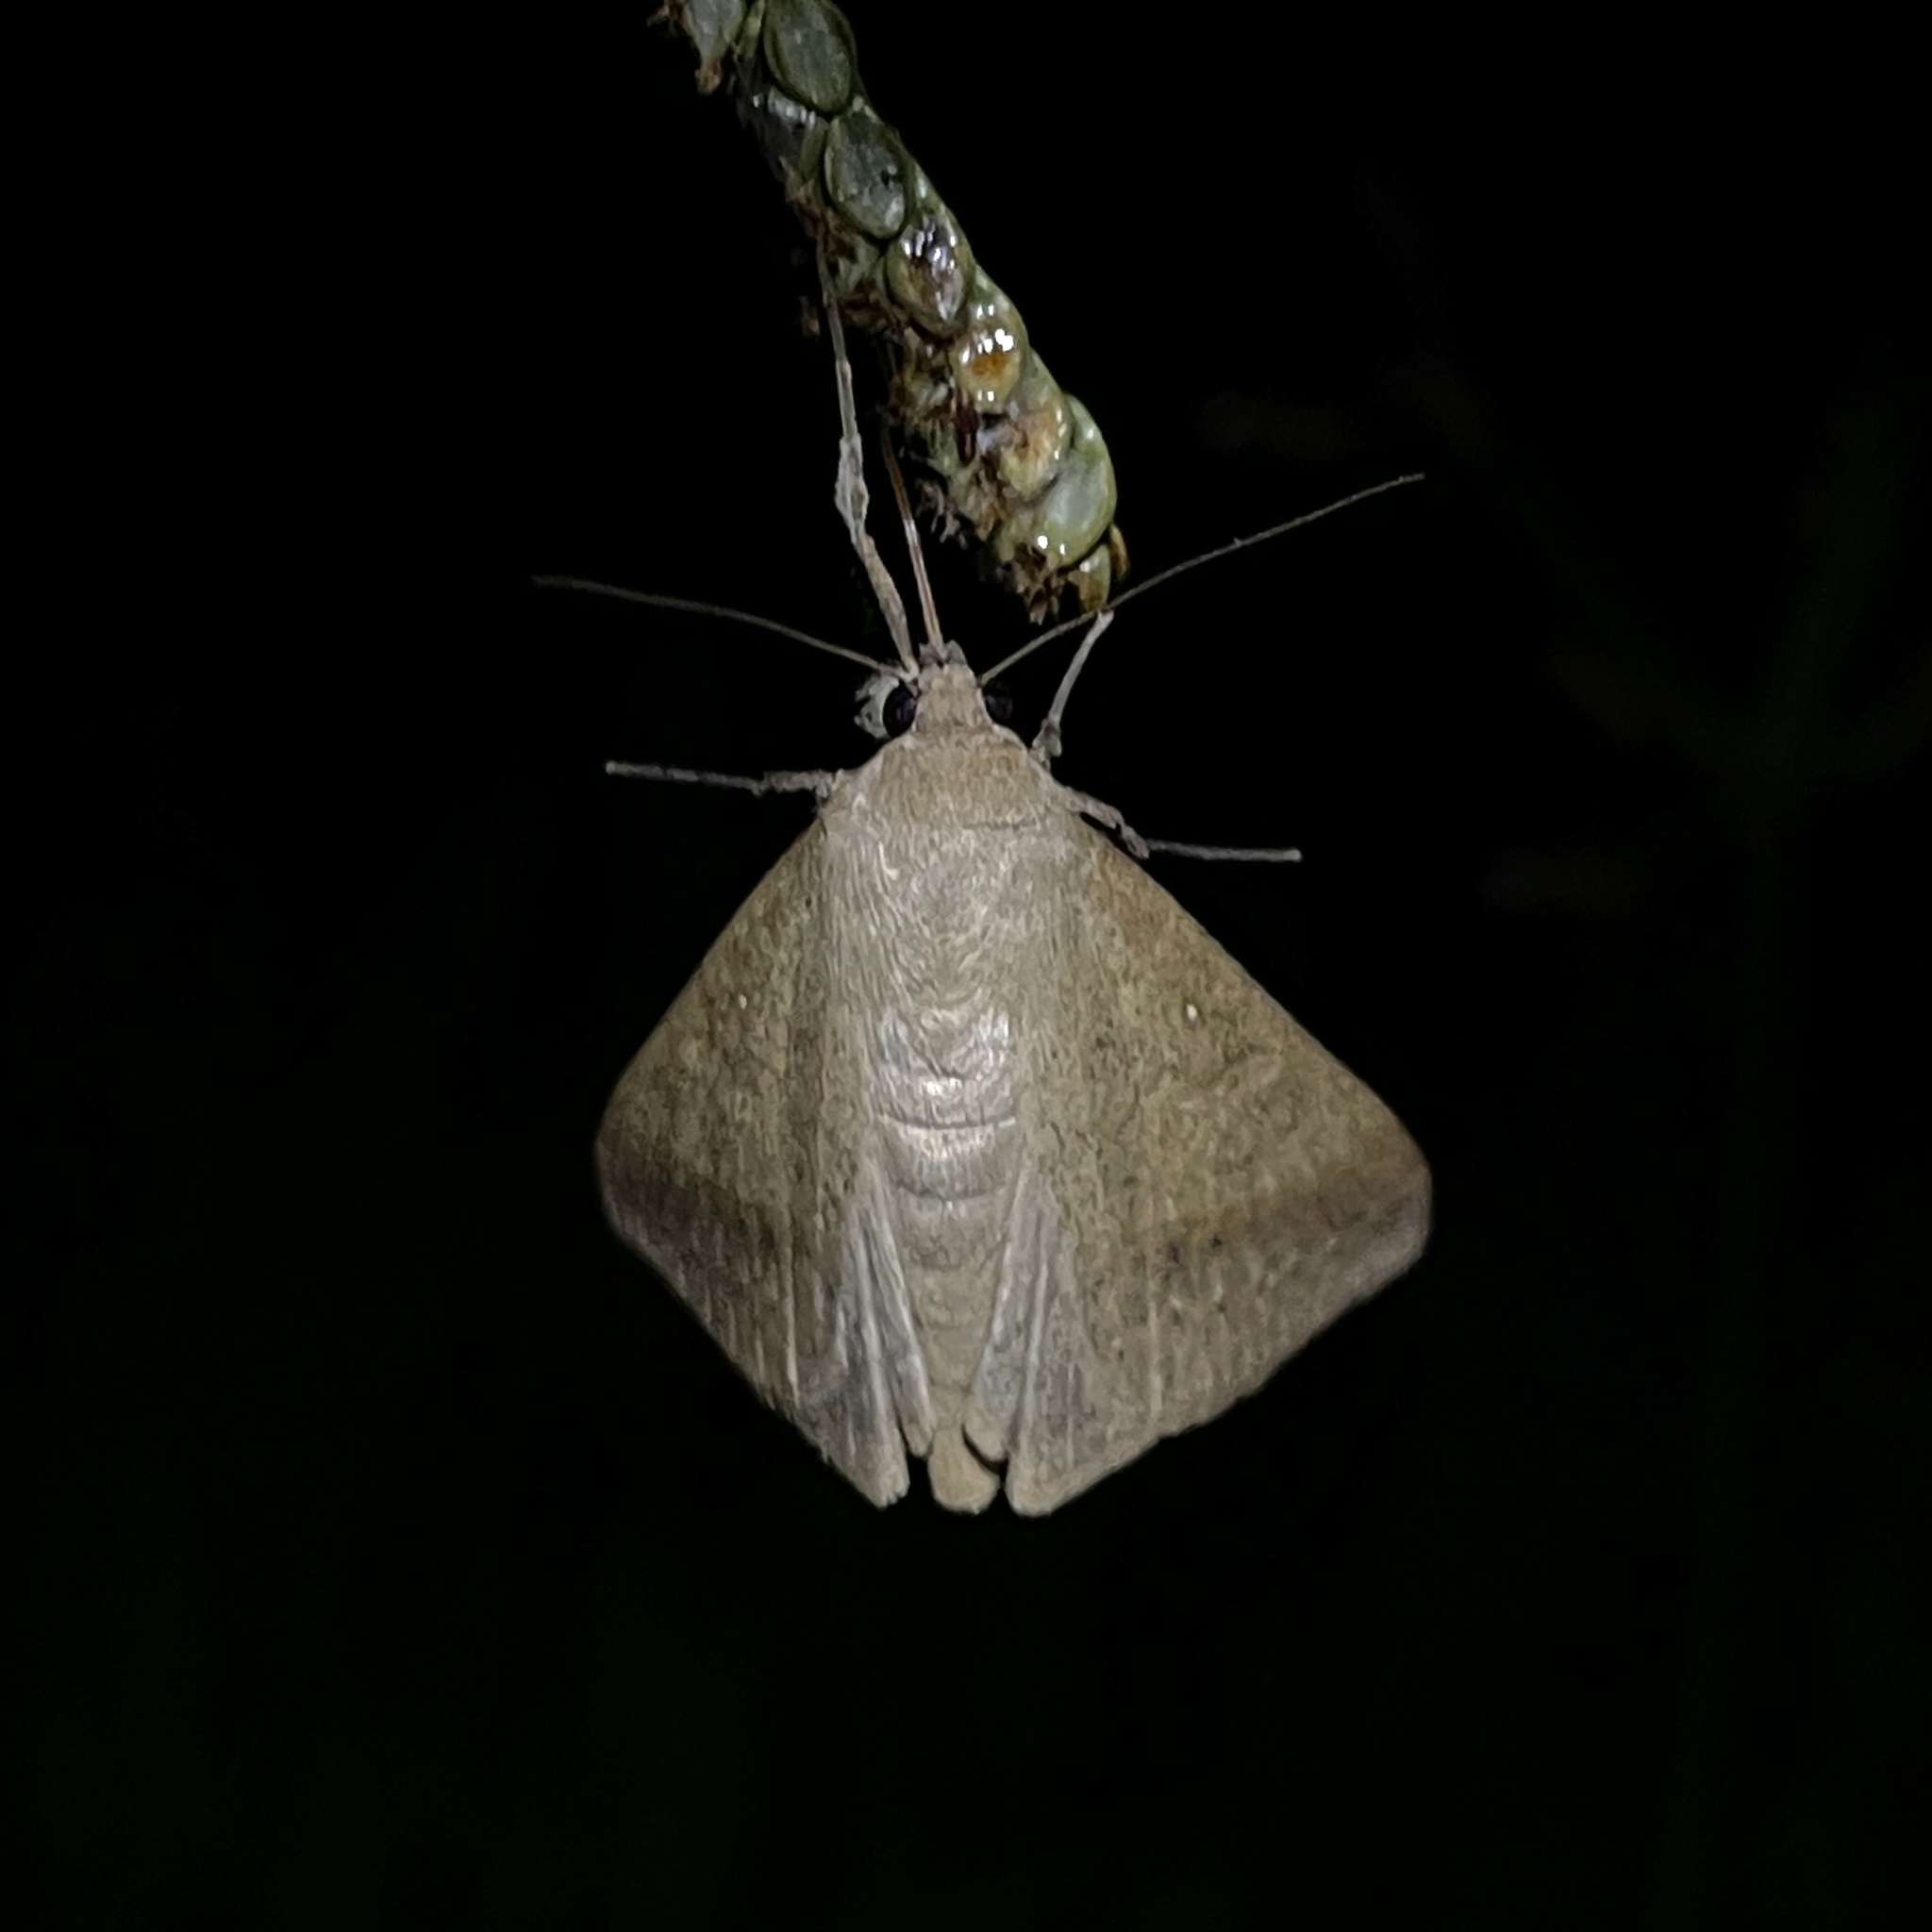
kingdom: Animalia
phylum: Arthropoda
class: Insecta
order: Lepidoptera
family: Erebidae
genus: Mocis
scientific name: Mocis latipes
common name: Striped grass looper
